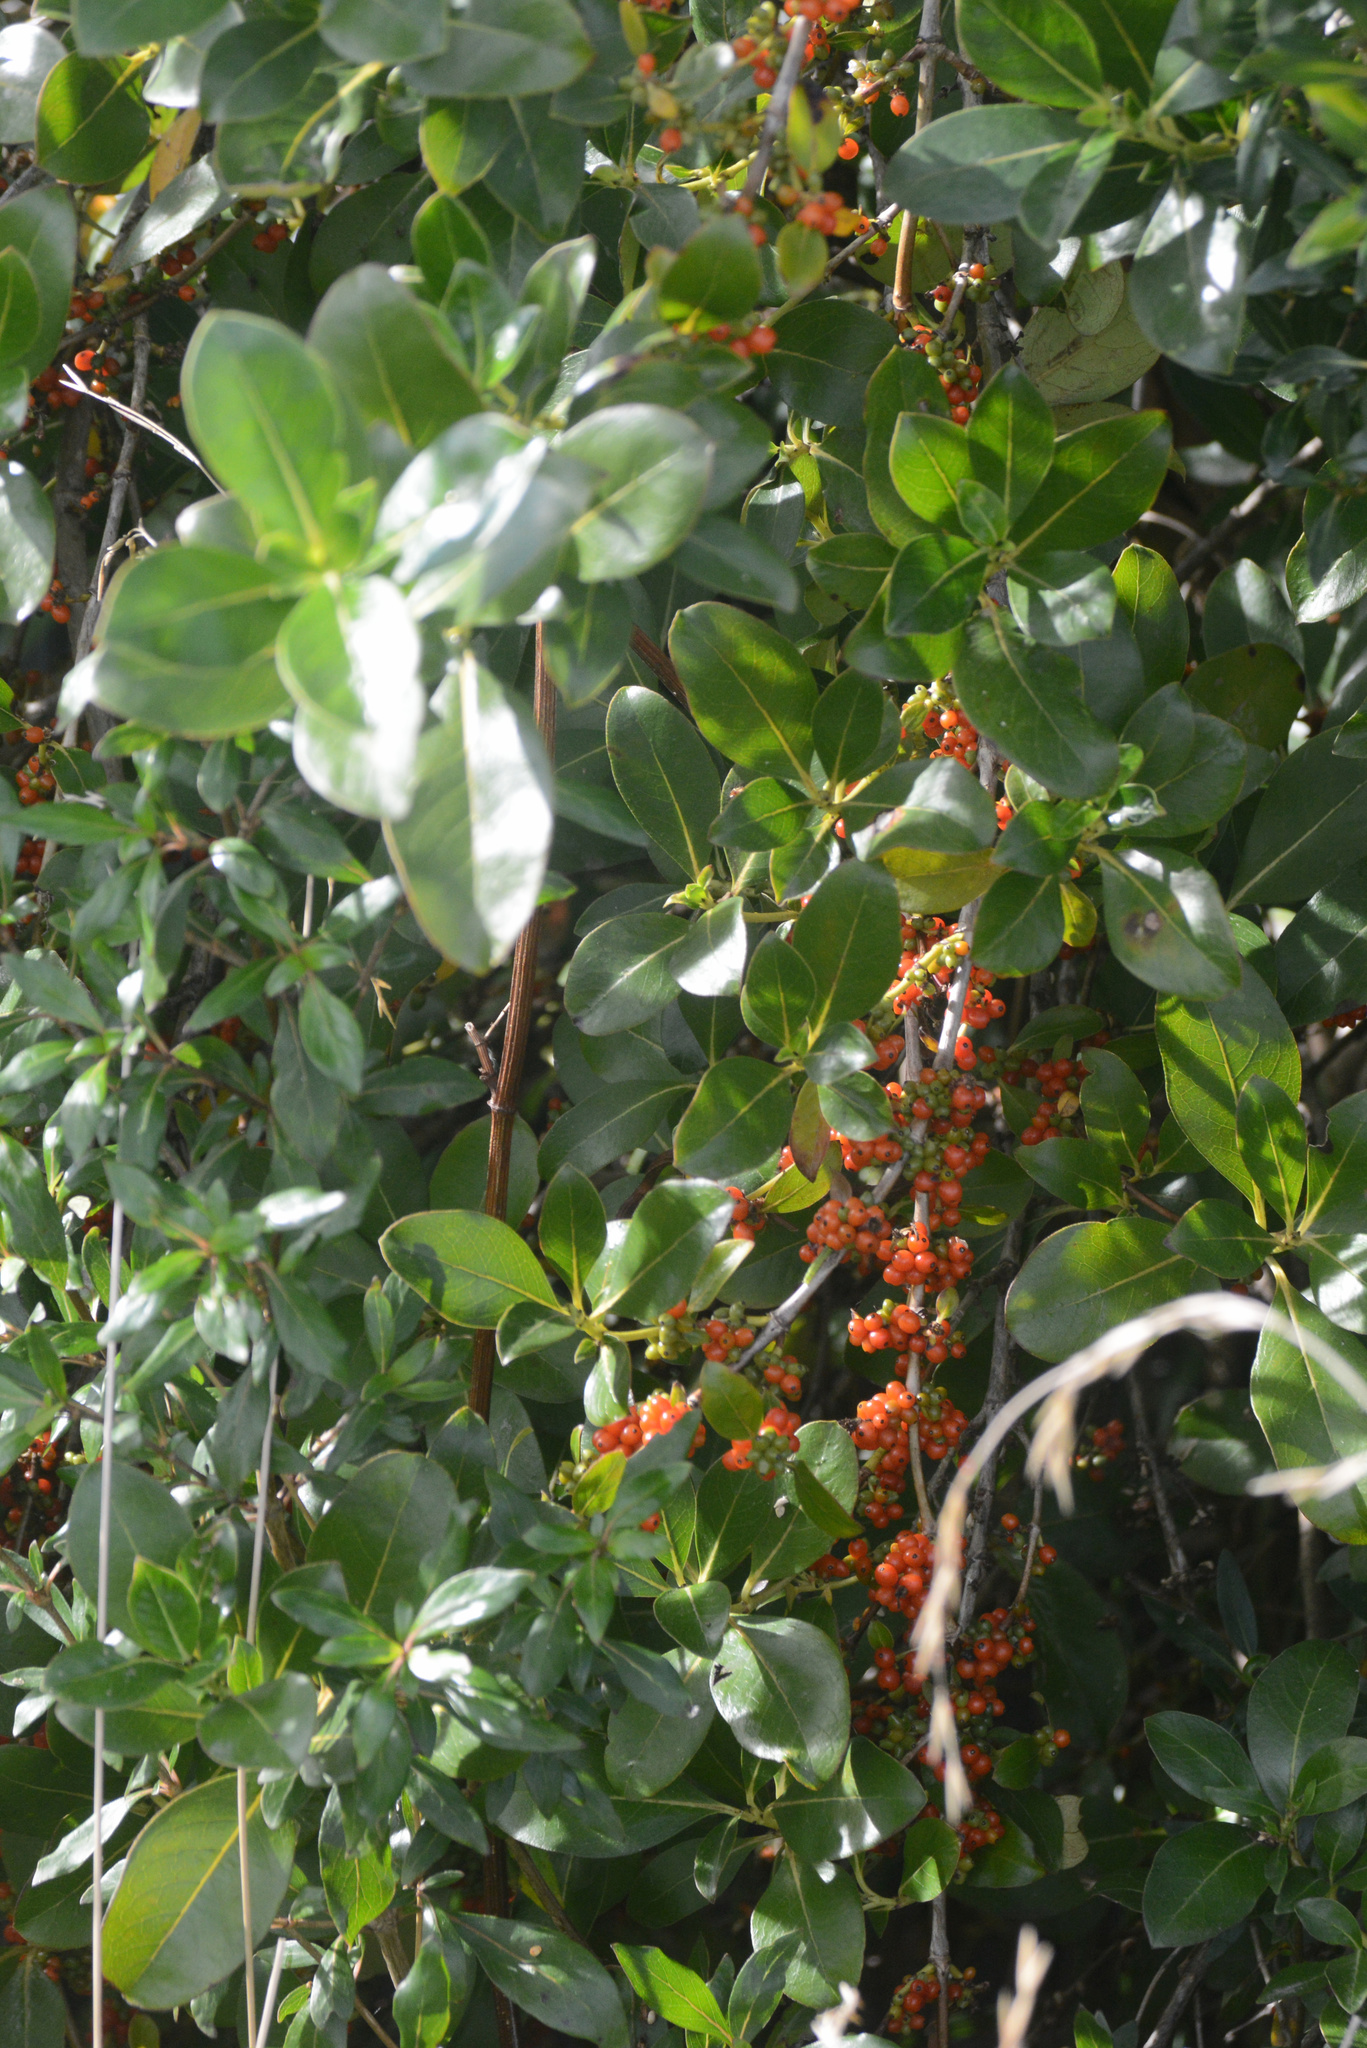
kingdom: Plantae
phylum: Tracheophyta
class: Magnoliopsida
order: Gentianales
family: Rubiaceae
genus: Coprosma
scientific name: Coprosma robusta
